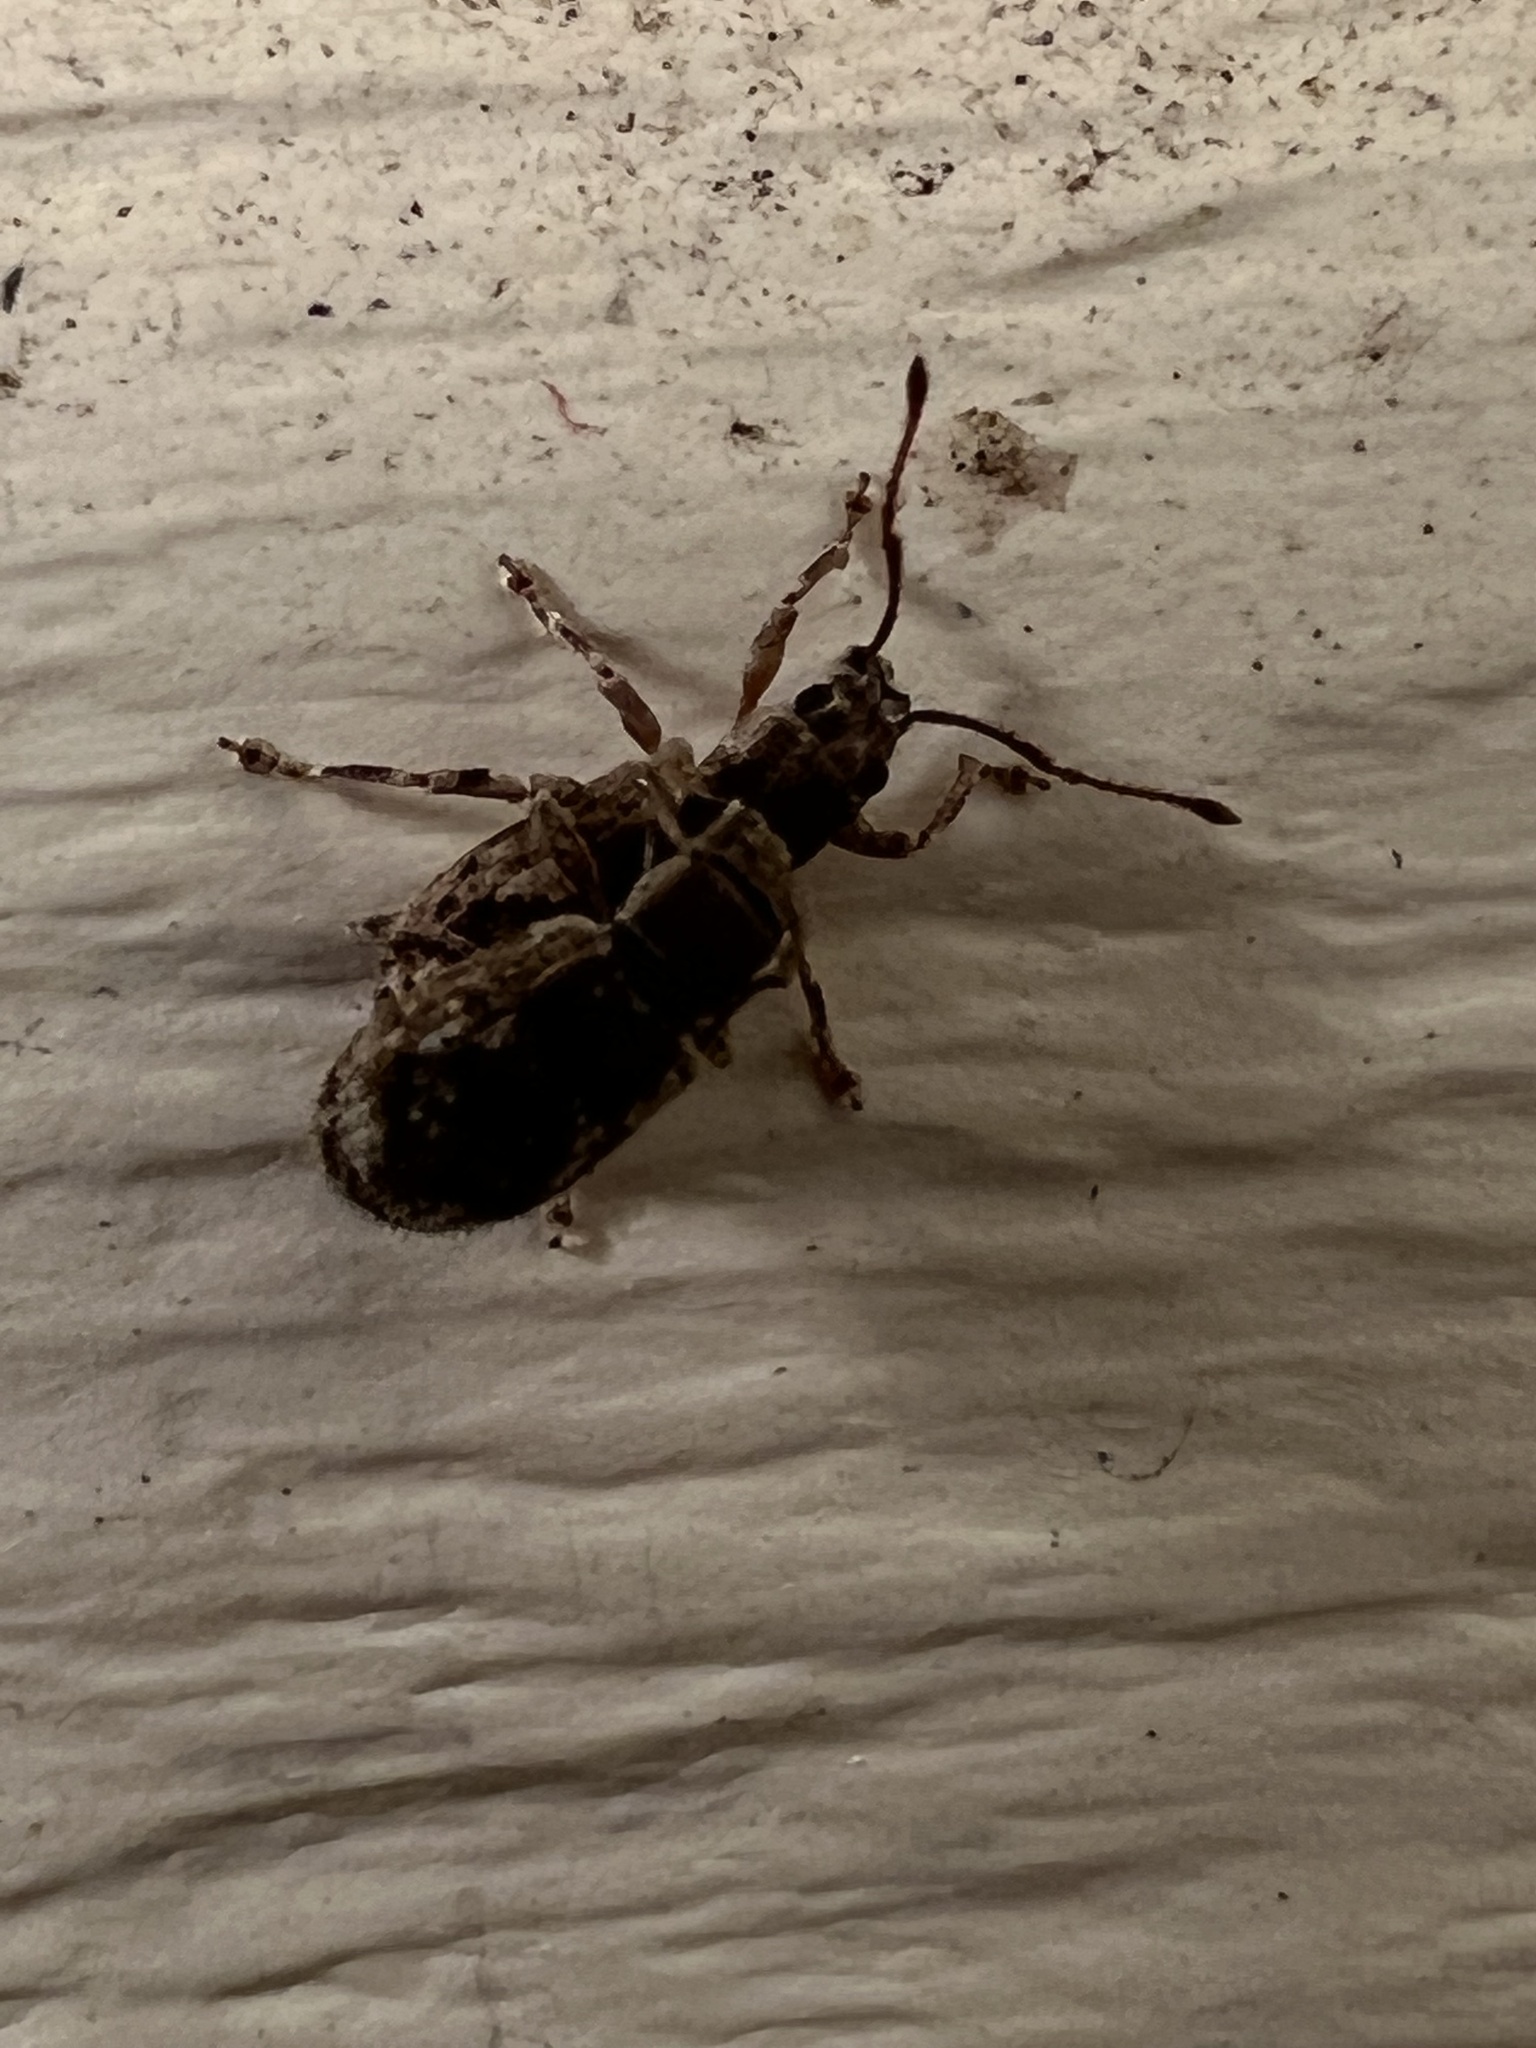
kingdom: Animalia
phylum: Arthropoda
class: Insecta
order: Coleoptera
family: Curculionidae
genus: Pseudoedophrys
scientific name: Pseudoedophrys hilleri
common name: Weevil
